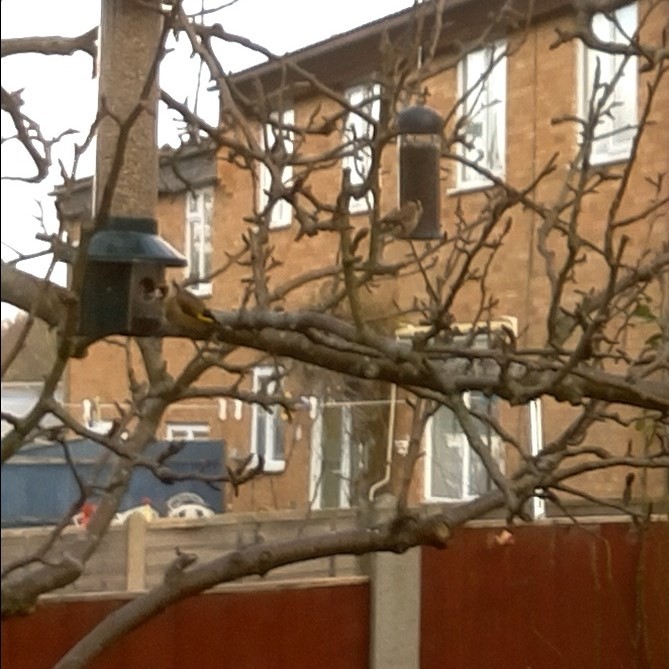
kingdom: Animalia
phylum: Chordata
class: Aves
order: Passeriformes
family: Fringillidae
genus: Carduelis
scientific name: Carduelis carduelis
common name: European goldfinch
